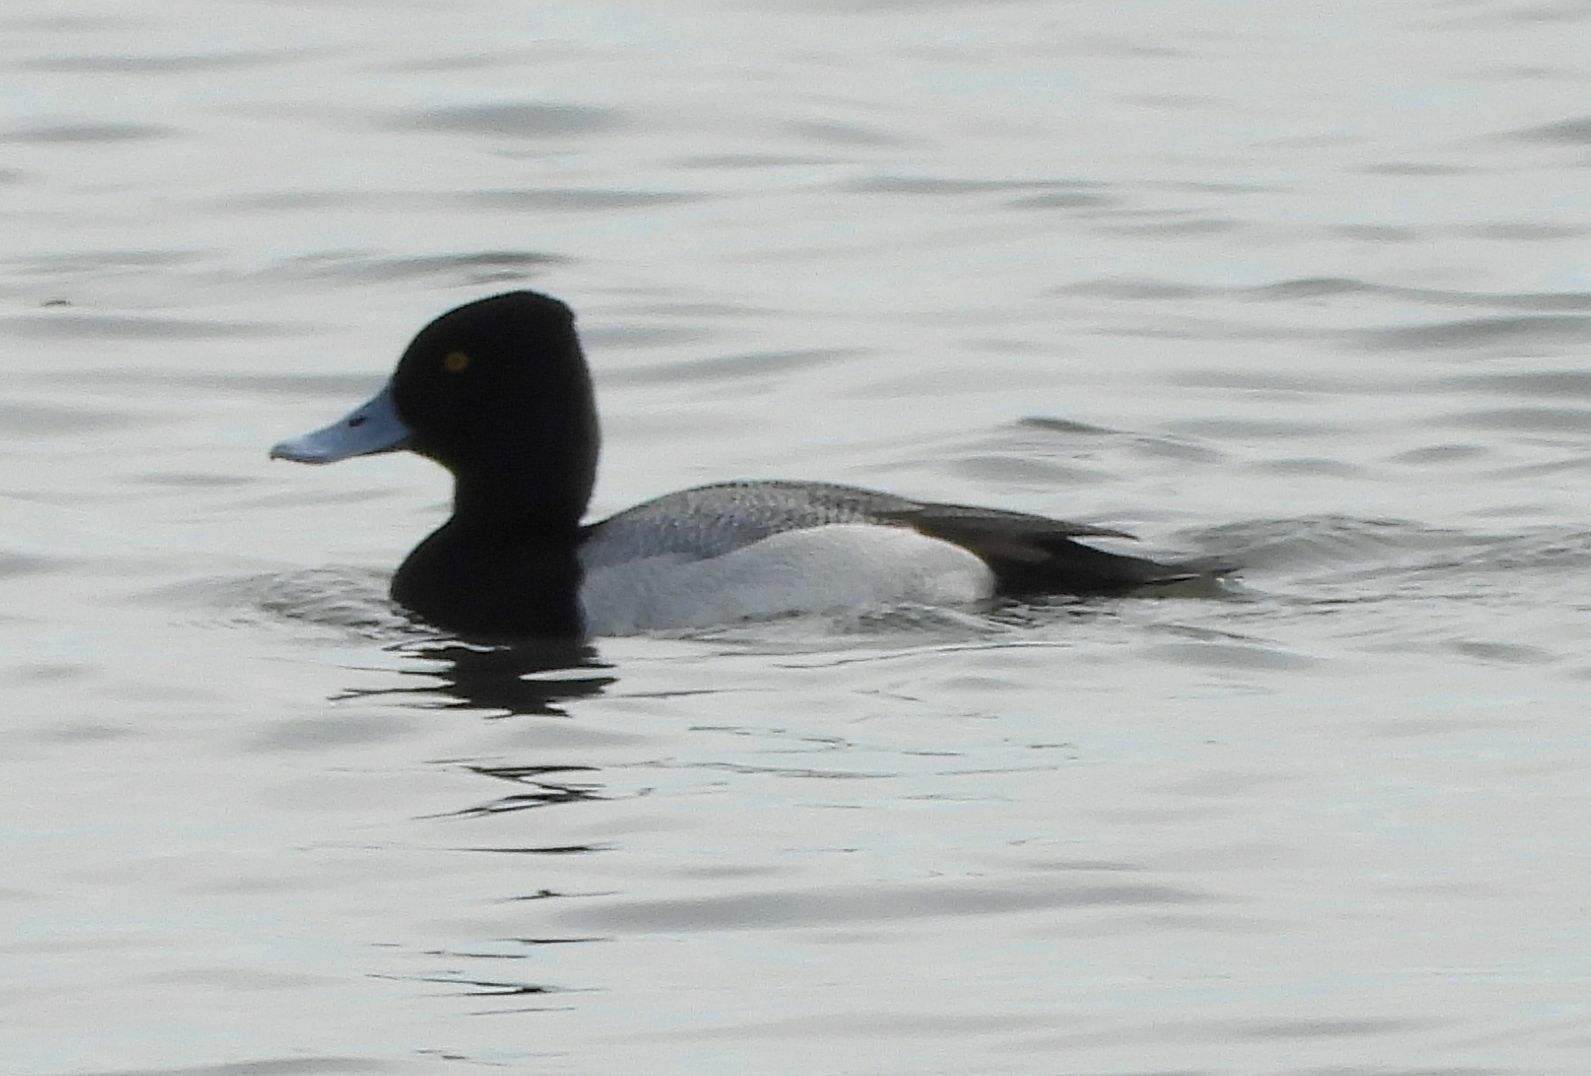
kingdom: Animalia
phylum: Chordata
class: Aves
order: Anseriformes
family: Anatidae
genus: Aythya
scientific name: Aythya affinis
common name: Lesser scaup
